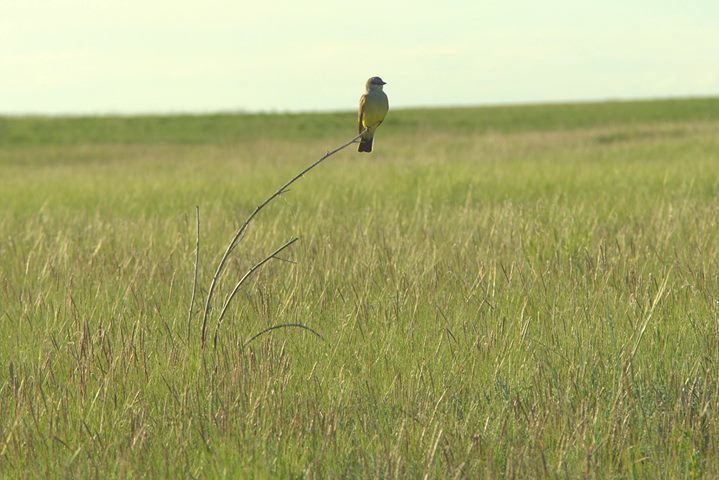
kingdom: Animalia
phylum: Chordata
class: Aves
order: Passeriformes
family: Tyrannidae
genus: Tyrannus
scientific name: Tyrannus verticalis
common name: Western kingbird
